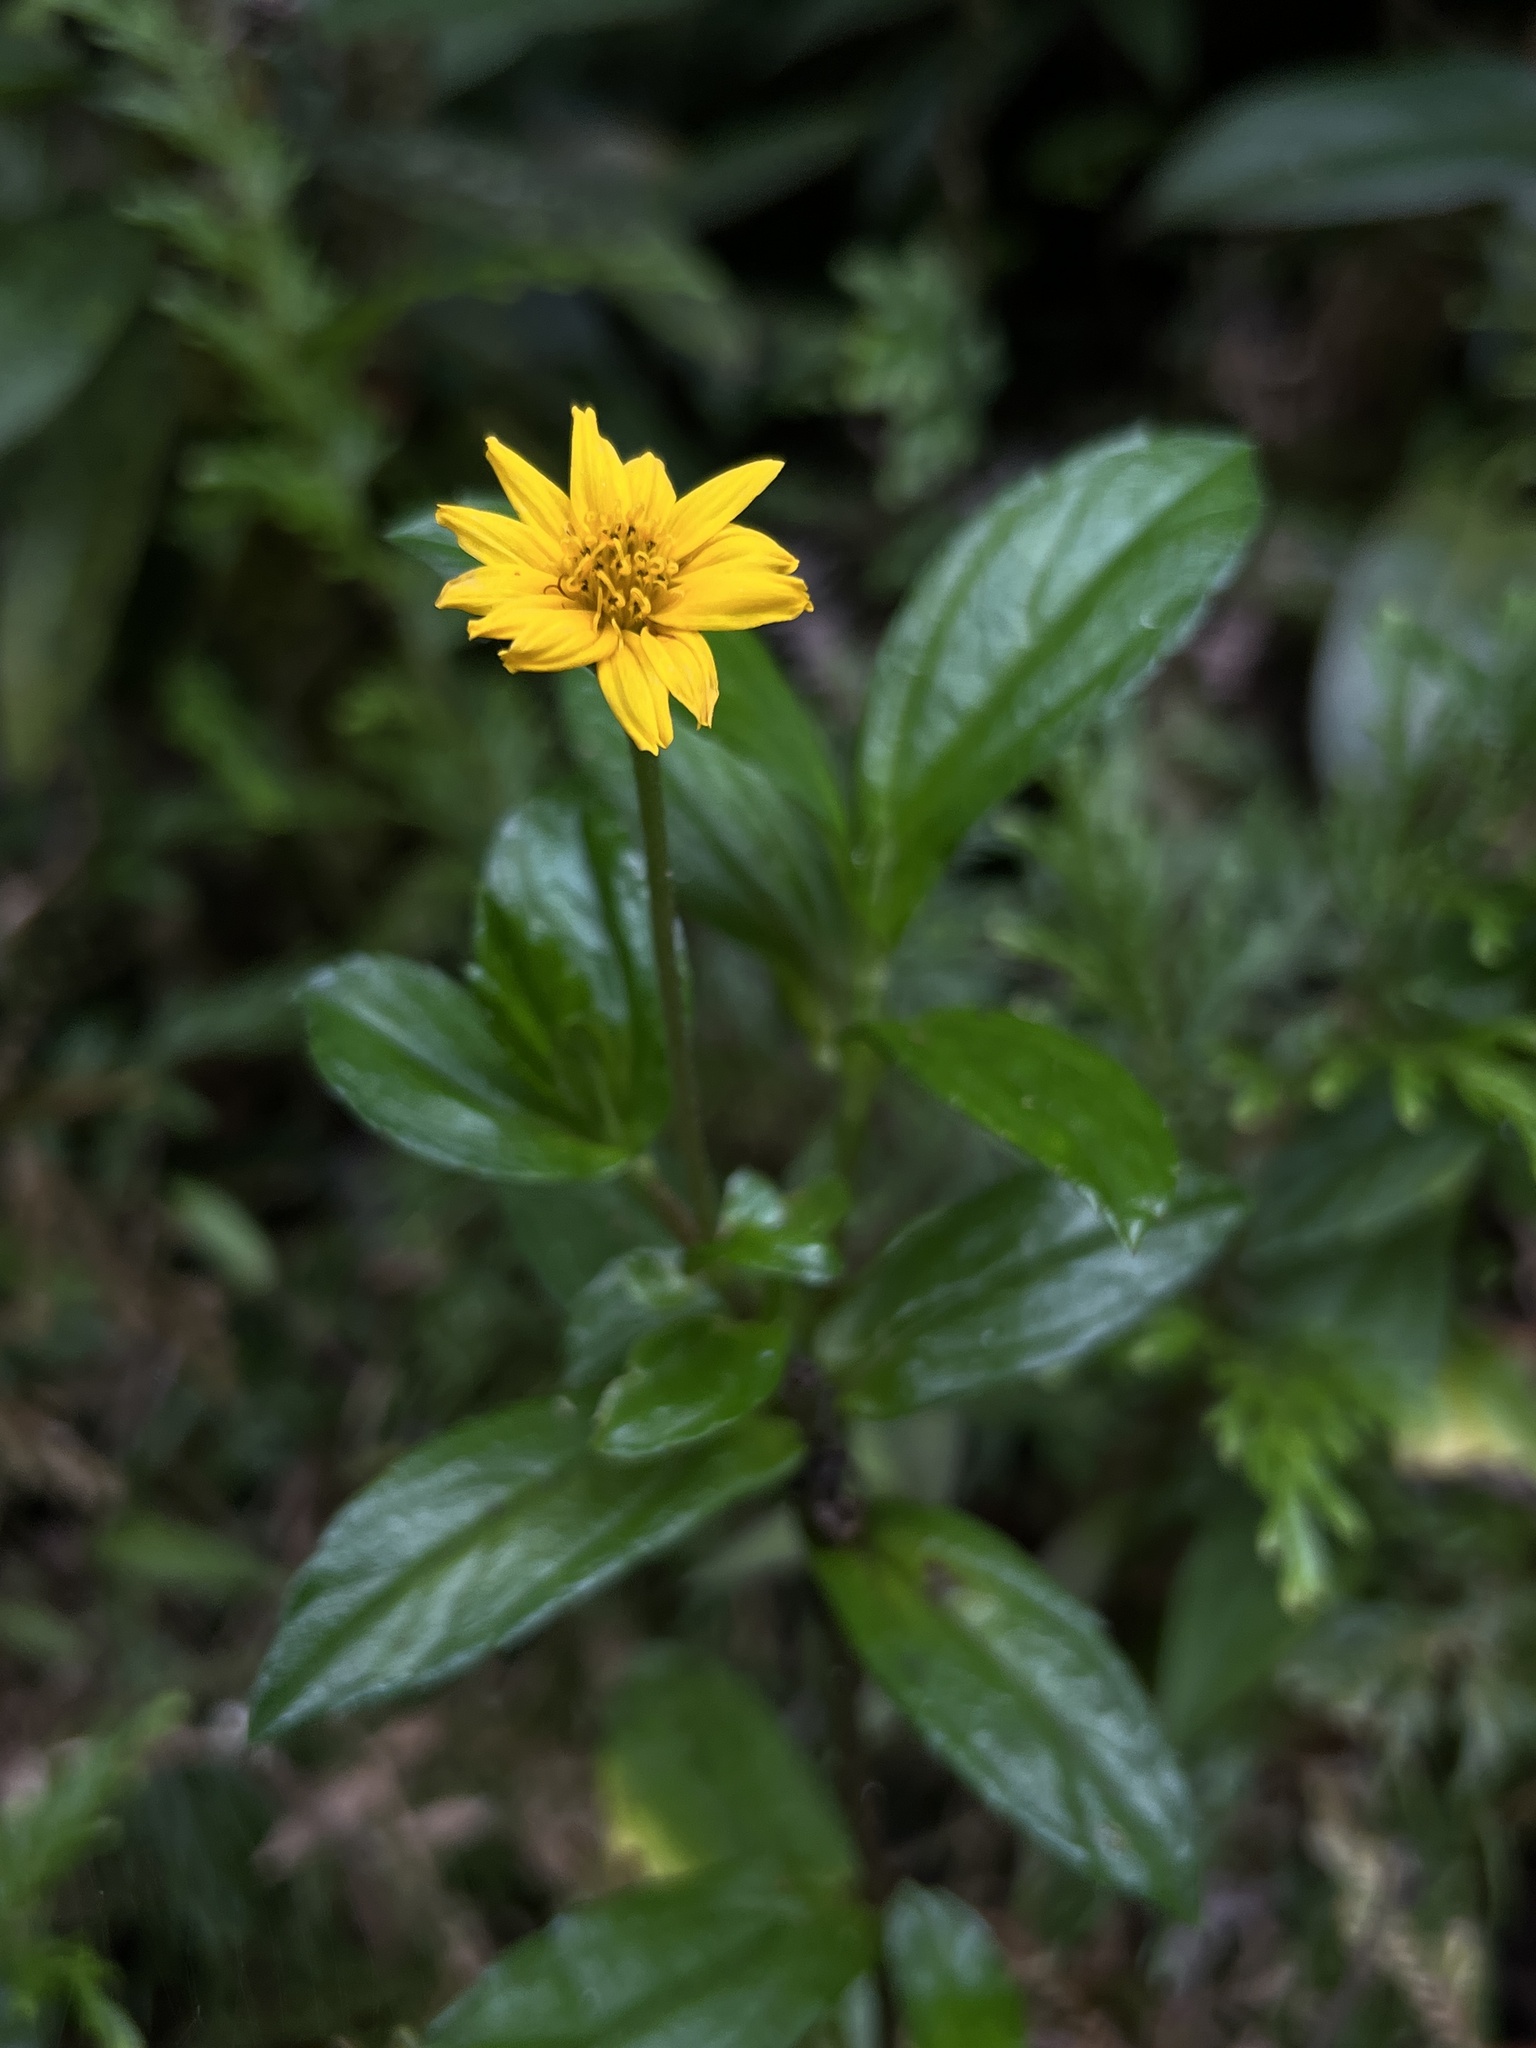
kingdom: Plantae
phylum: Tracheophyta
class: Magnoliopsida
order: Asterales
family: Asteraceae
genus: Sphagneticola
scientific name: Sphagneticola trilobata
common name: Bay biscayne creeping-oxeye
